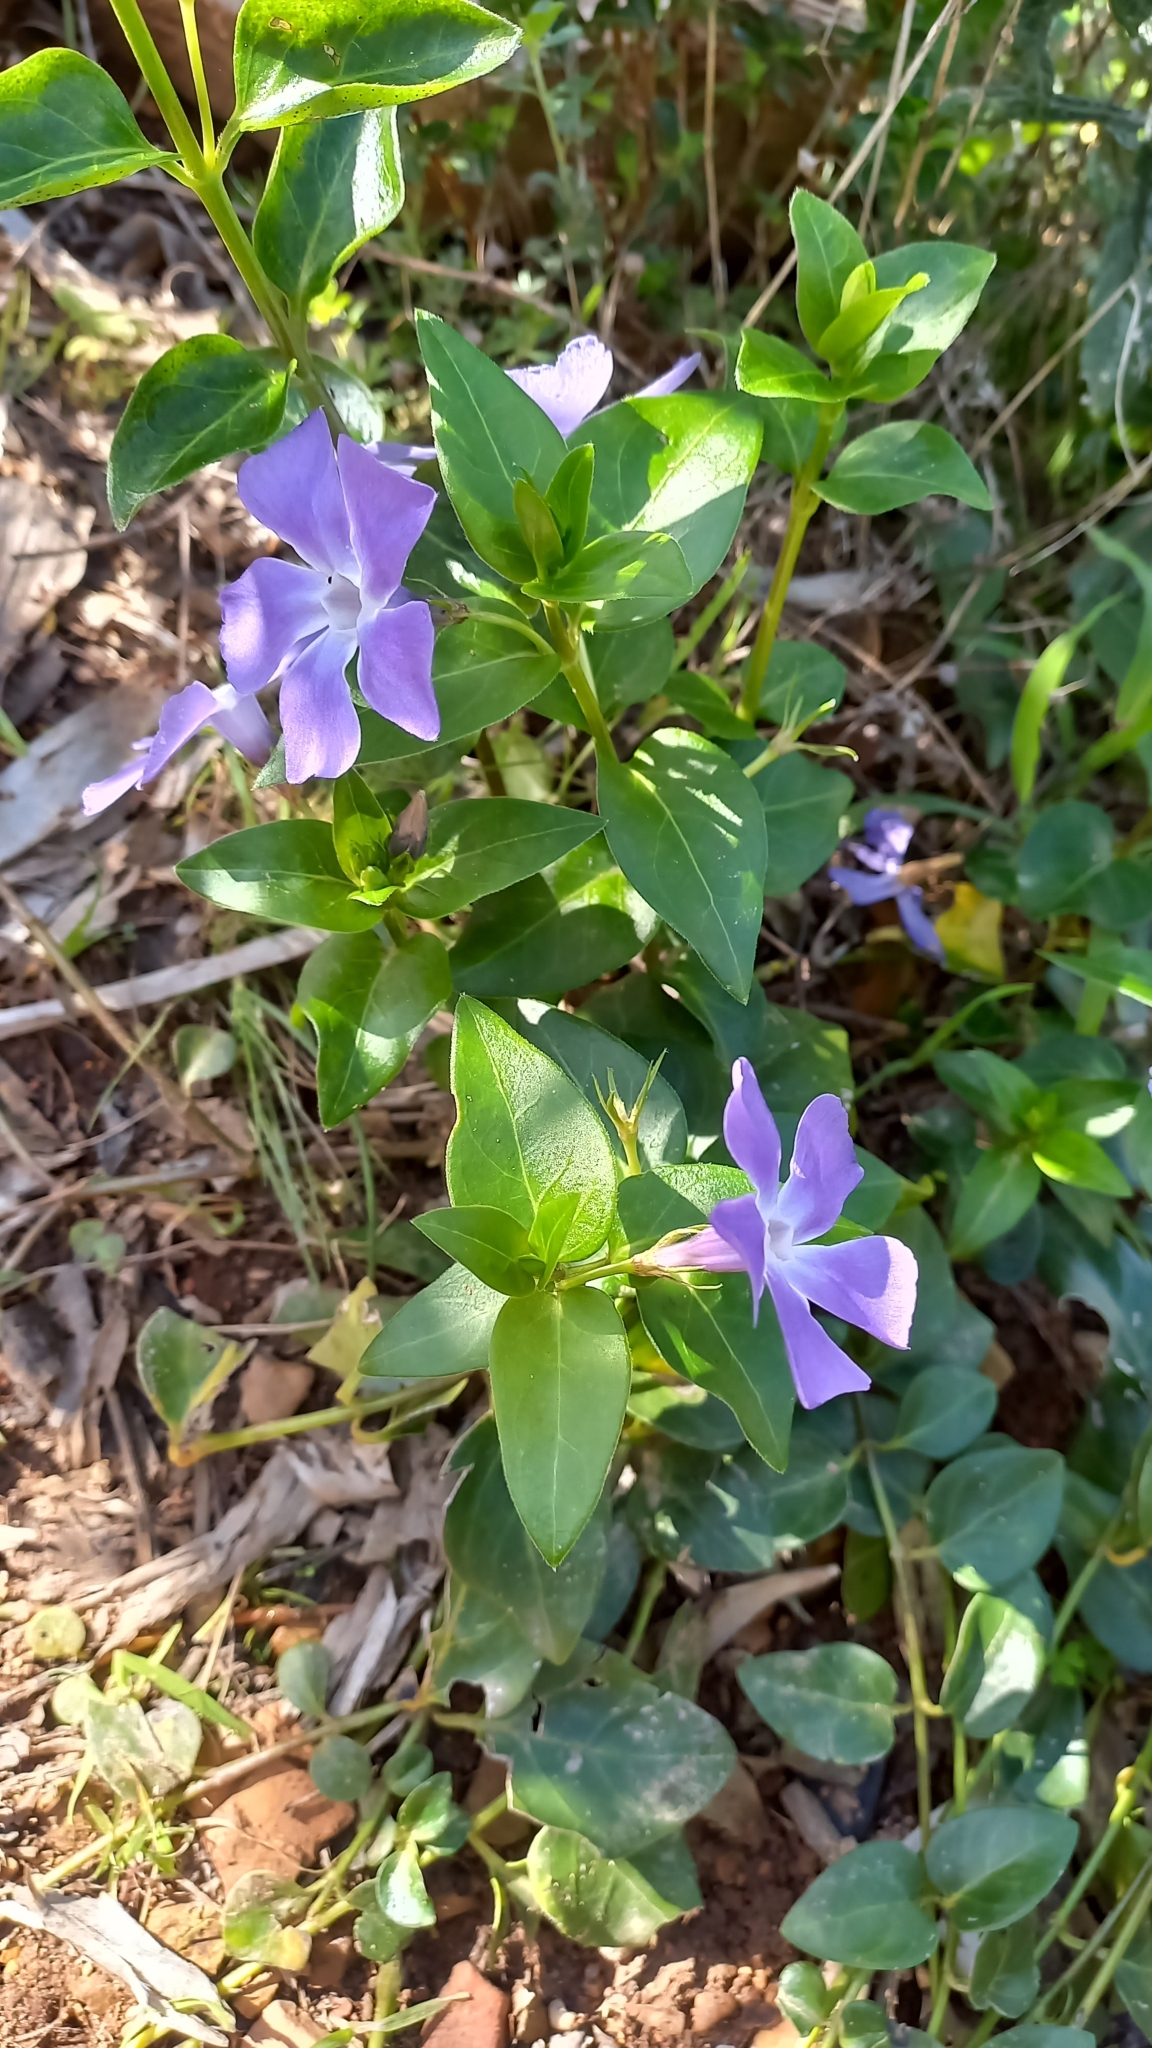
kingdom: Plantae
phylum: Tracheophyta
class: Magnoliopsida
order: Gentianales
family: Apocynaceae
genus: Vinca
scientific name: Vinca major
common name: Greater periwinkle
